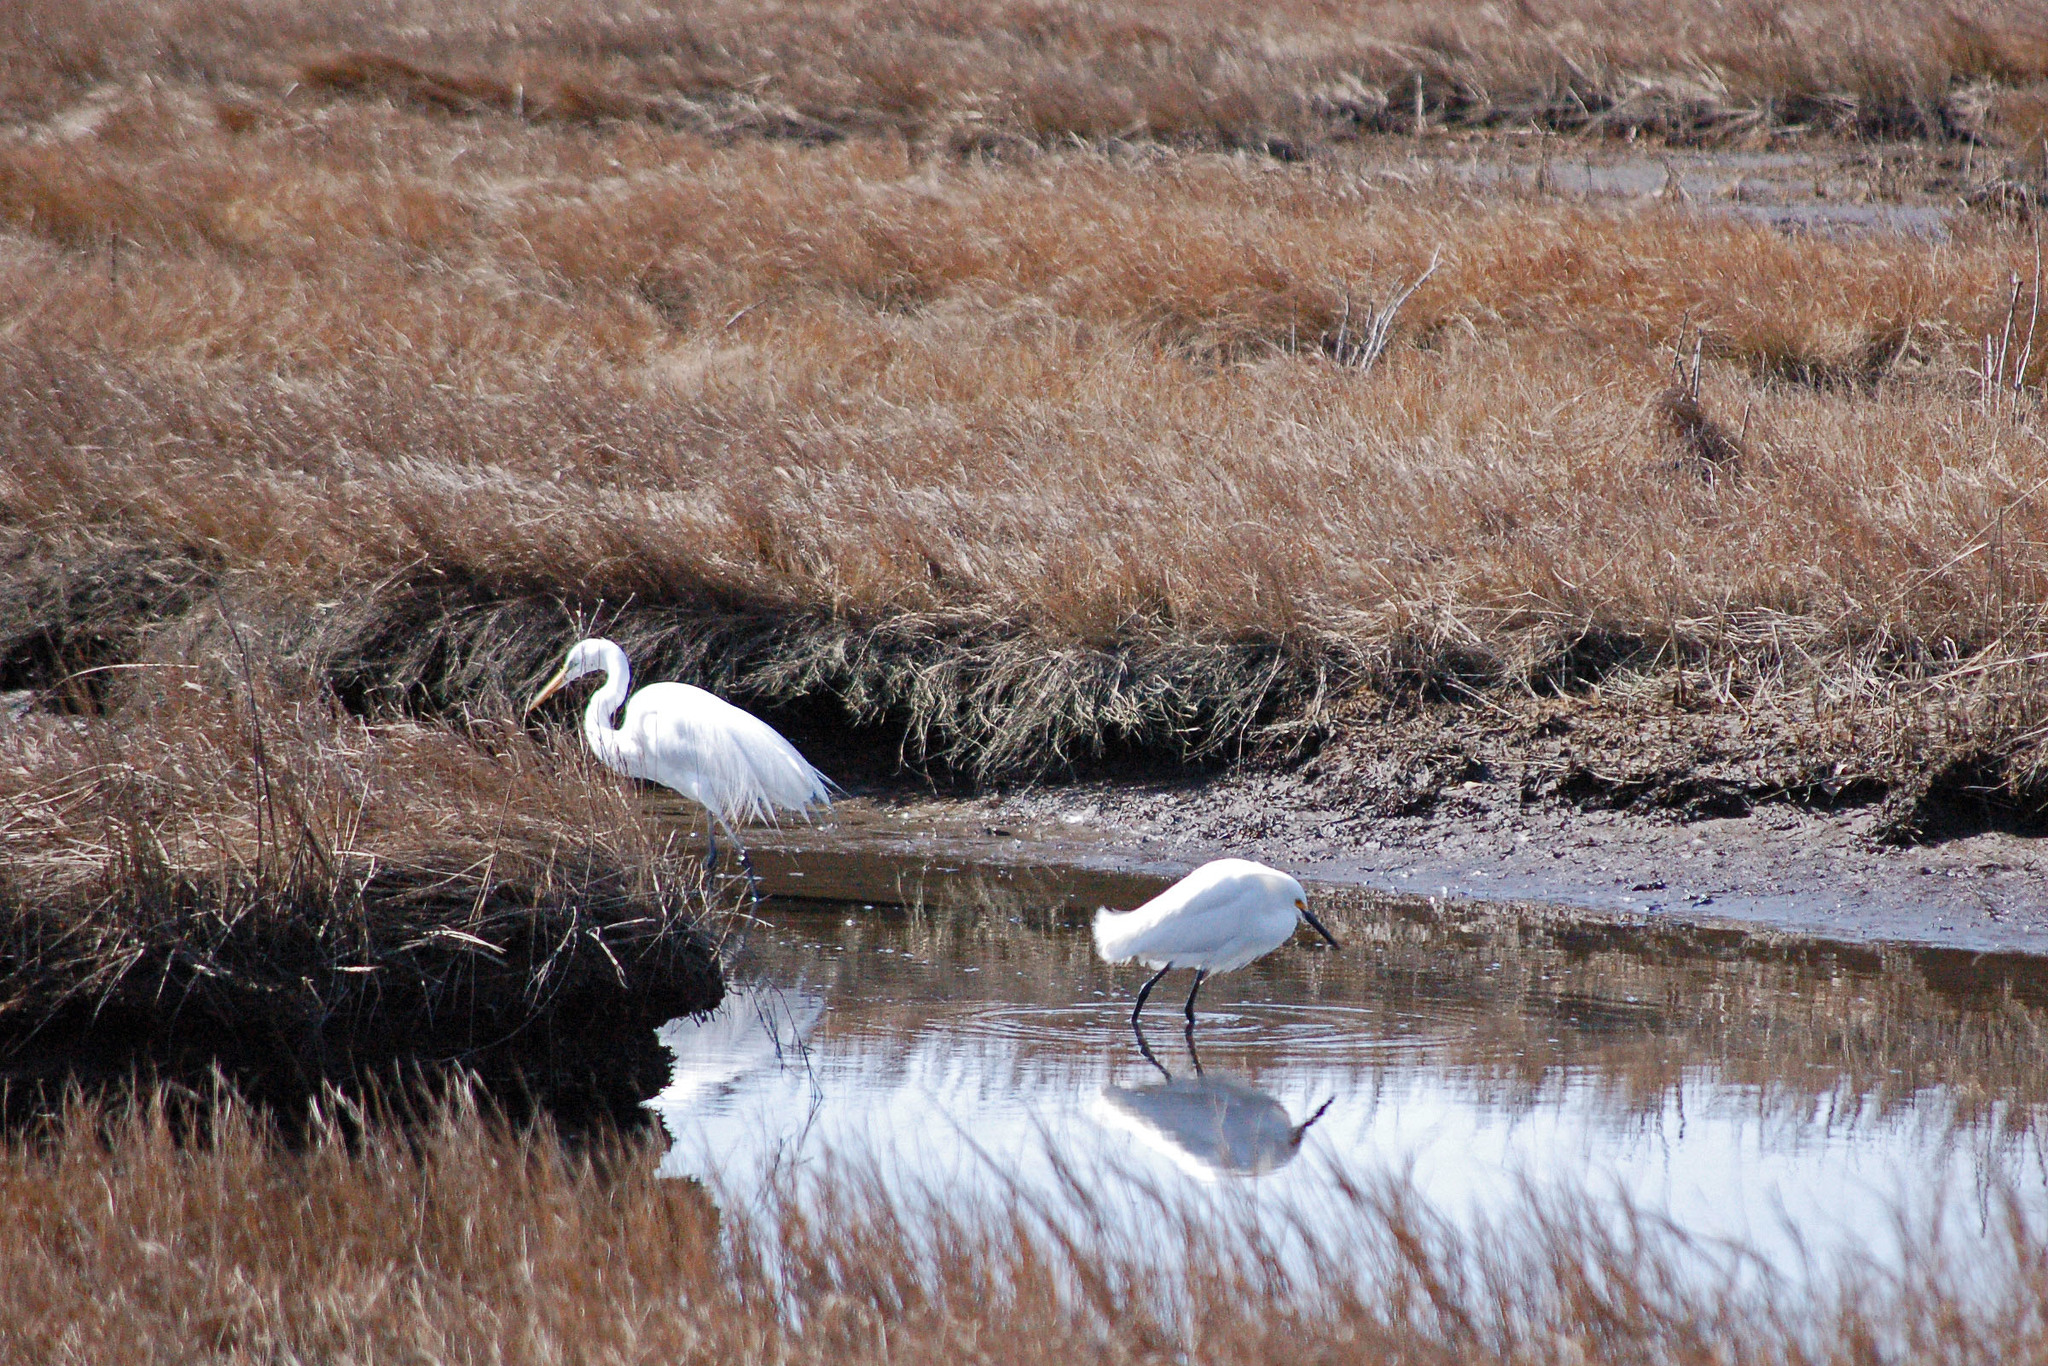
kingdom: Animalia
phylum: Chordata
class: Aves
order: Pelecaniformes
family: Ardeidae
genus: Egretta
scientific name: Egretta thula
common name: Snowy egret
